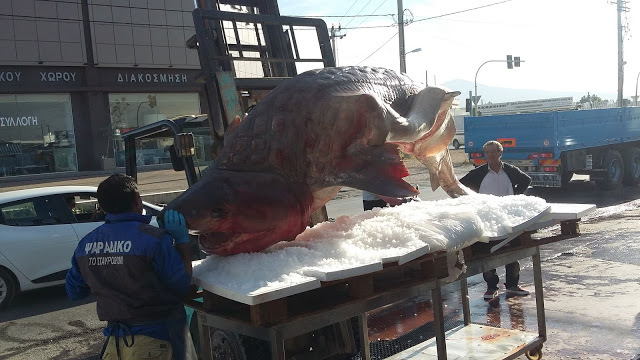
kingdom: Animalia
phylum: Chordata
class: Elasmobranchii
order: Hexanchiformes
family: Hexanchidae
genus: Hexanchus
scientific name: Hexanchus griseus
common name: Bluntnose sixgill shark
